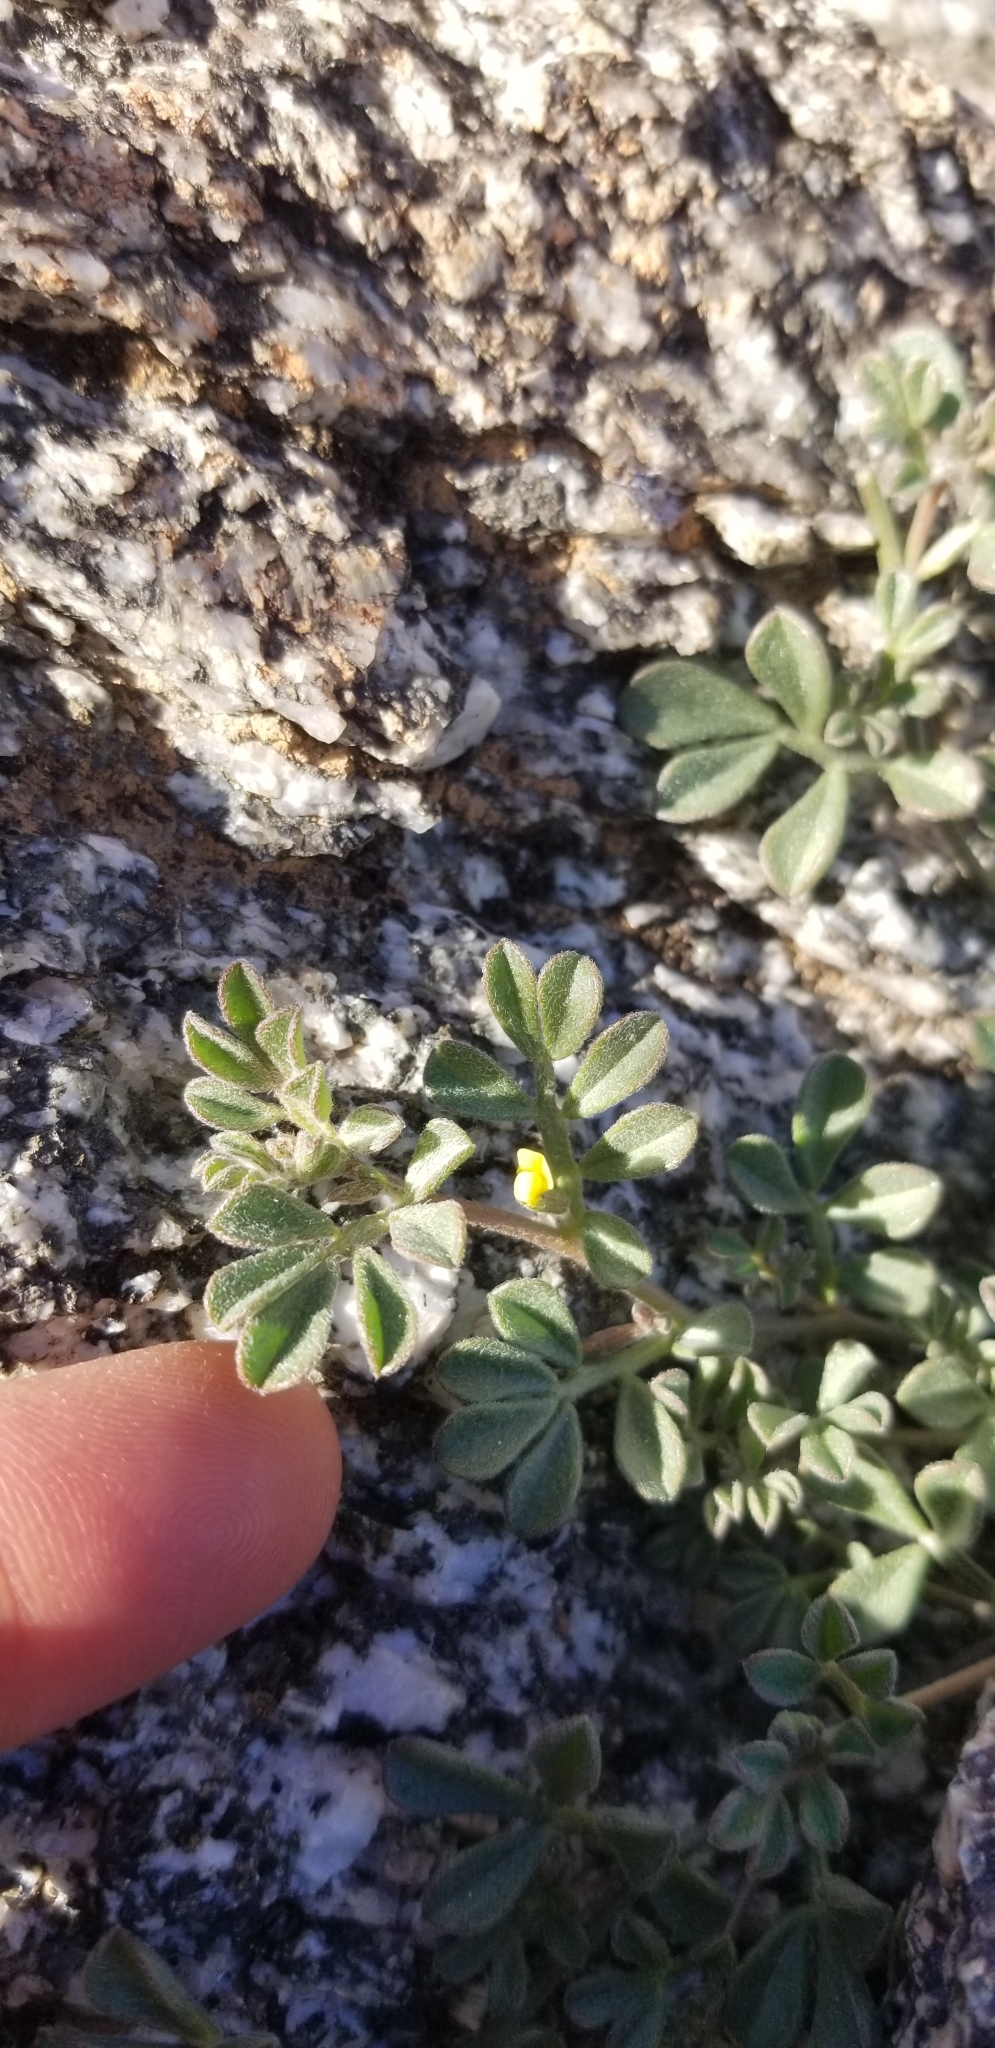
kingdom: Plantae
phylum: Tracheophyta
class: Magnoliopsida
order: Fabales
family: Fabaceae
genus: Acmispon
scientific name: Acmispon strigosus
